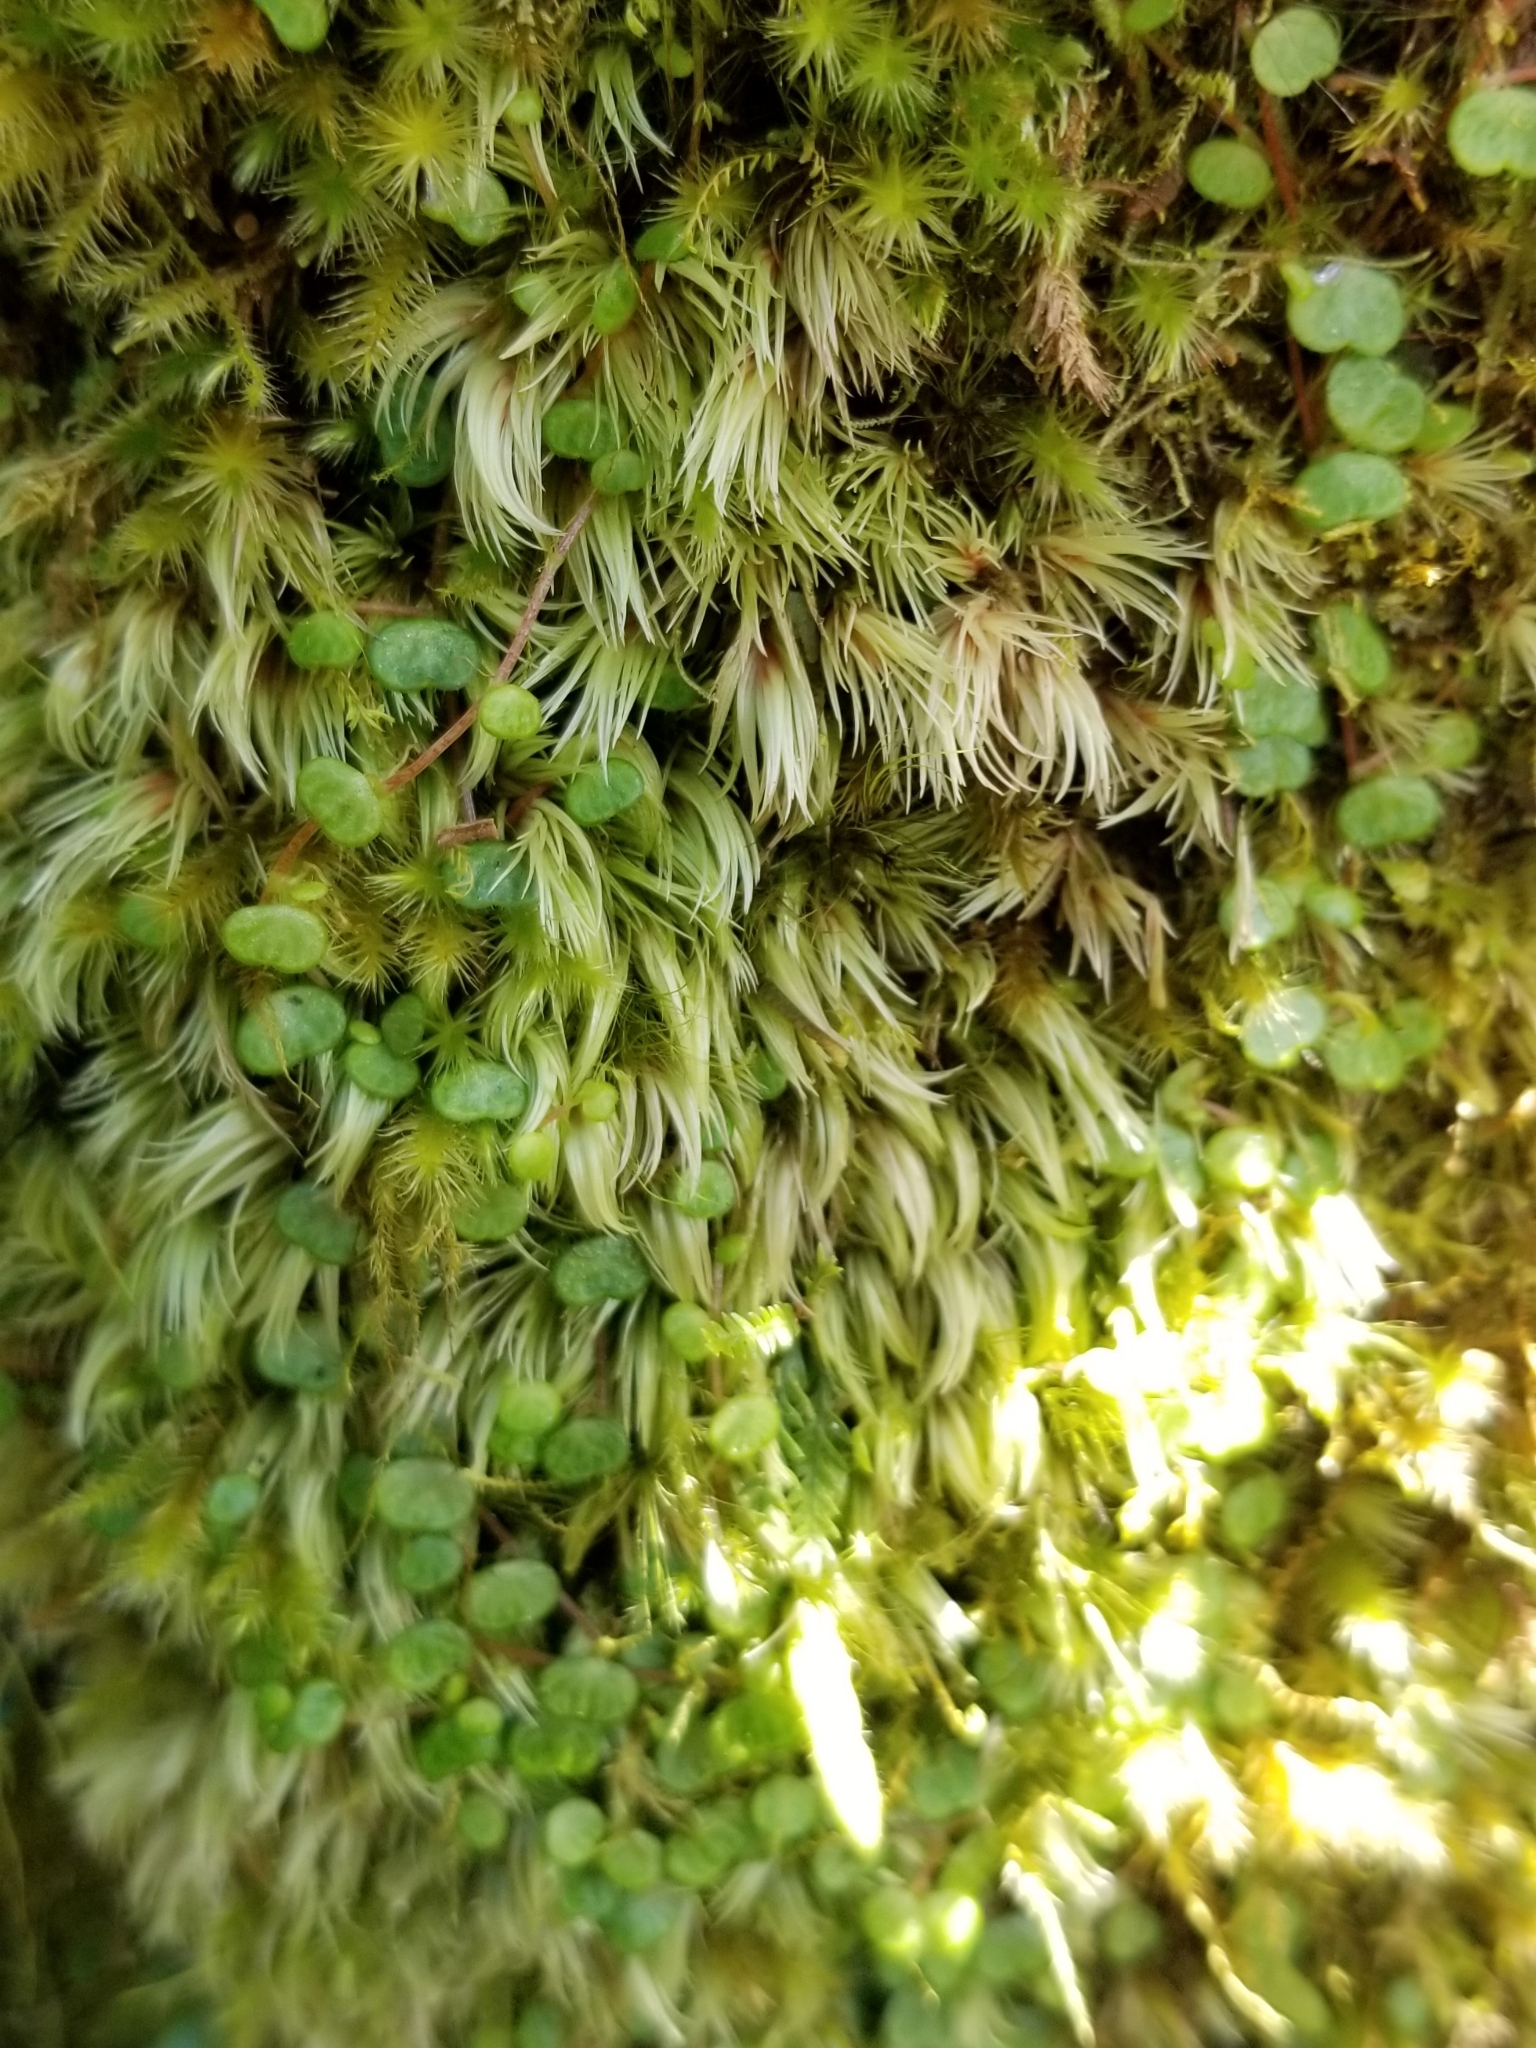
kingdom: Plantae
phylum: Tracheophyta
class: Magnoliopsida
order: Piperales
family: Piperaceae
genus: Peperomia
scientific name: Peperomia emarginella
